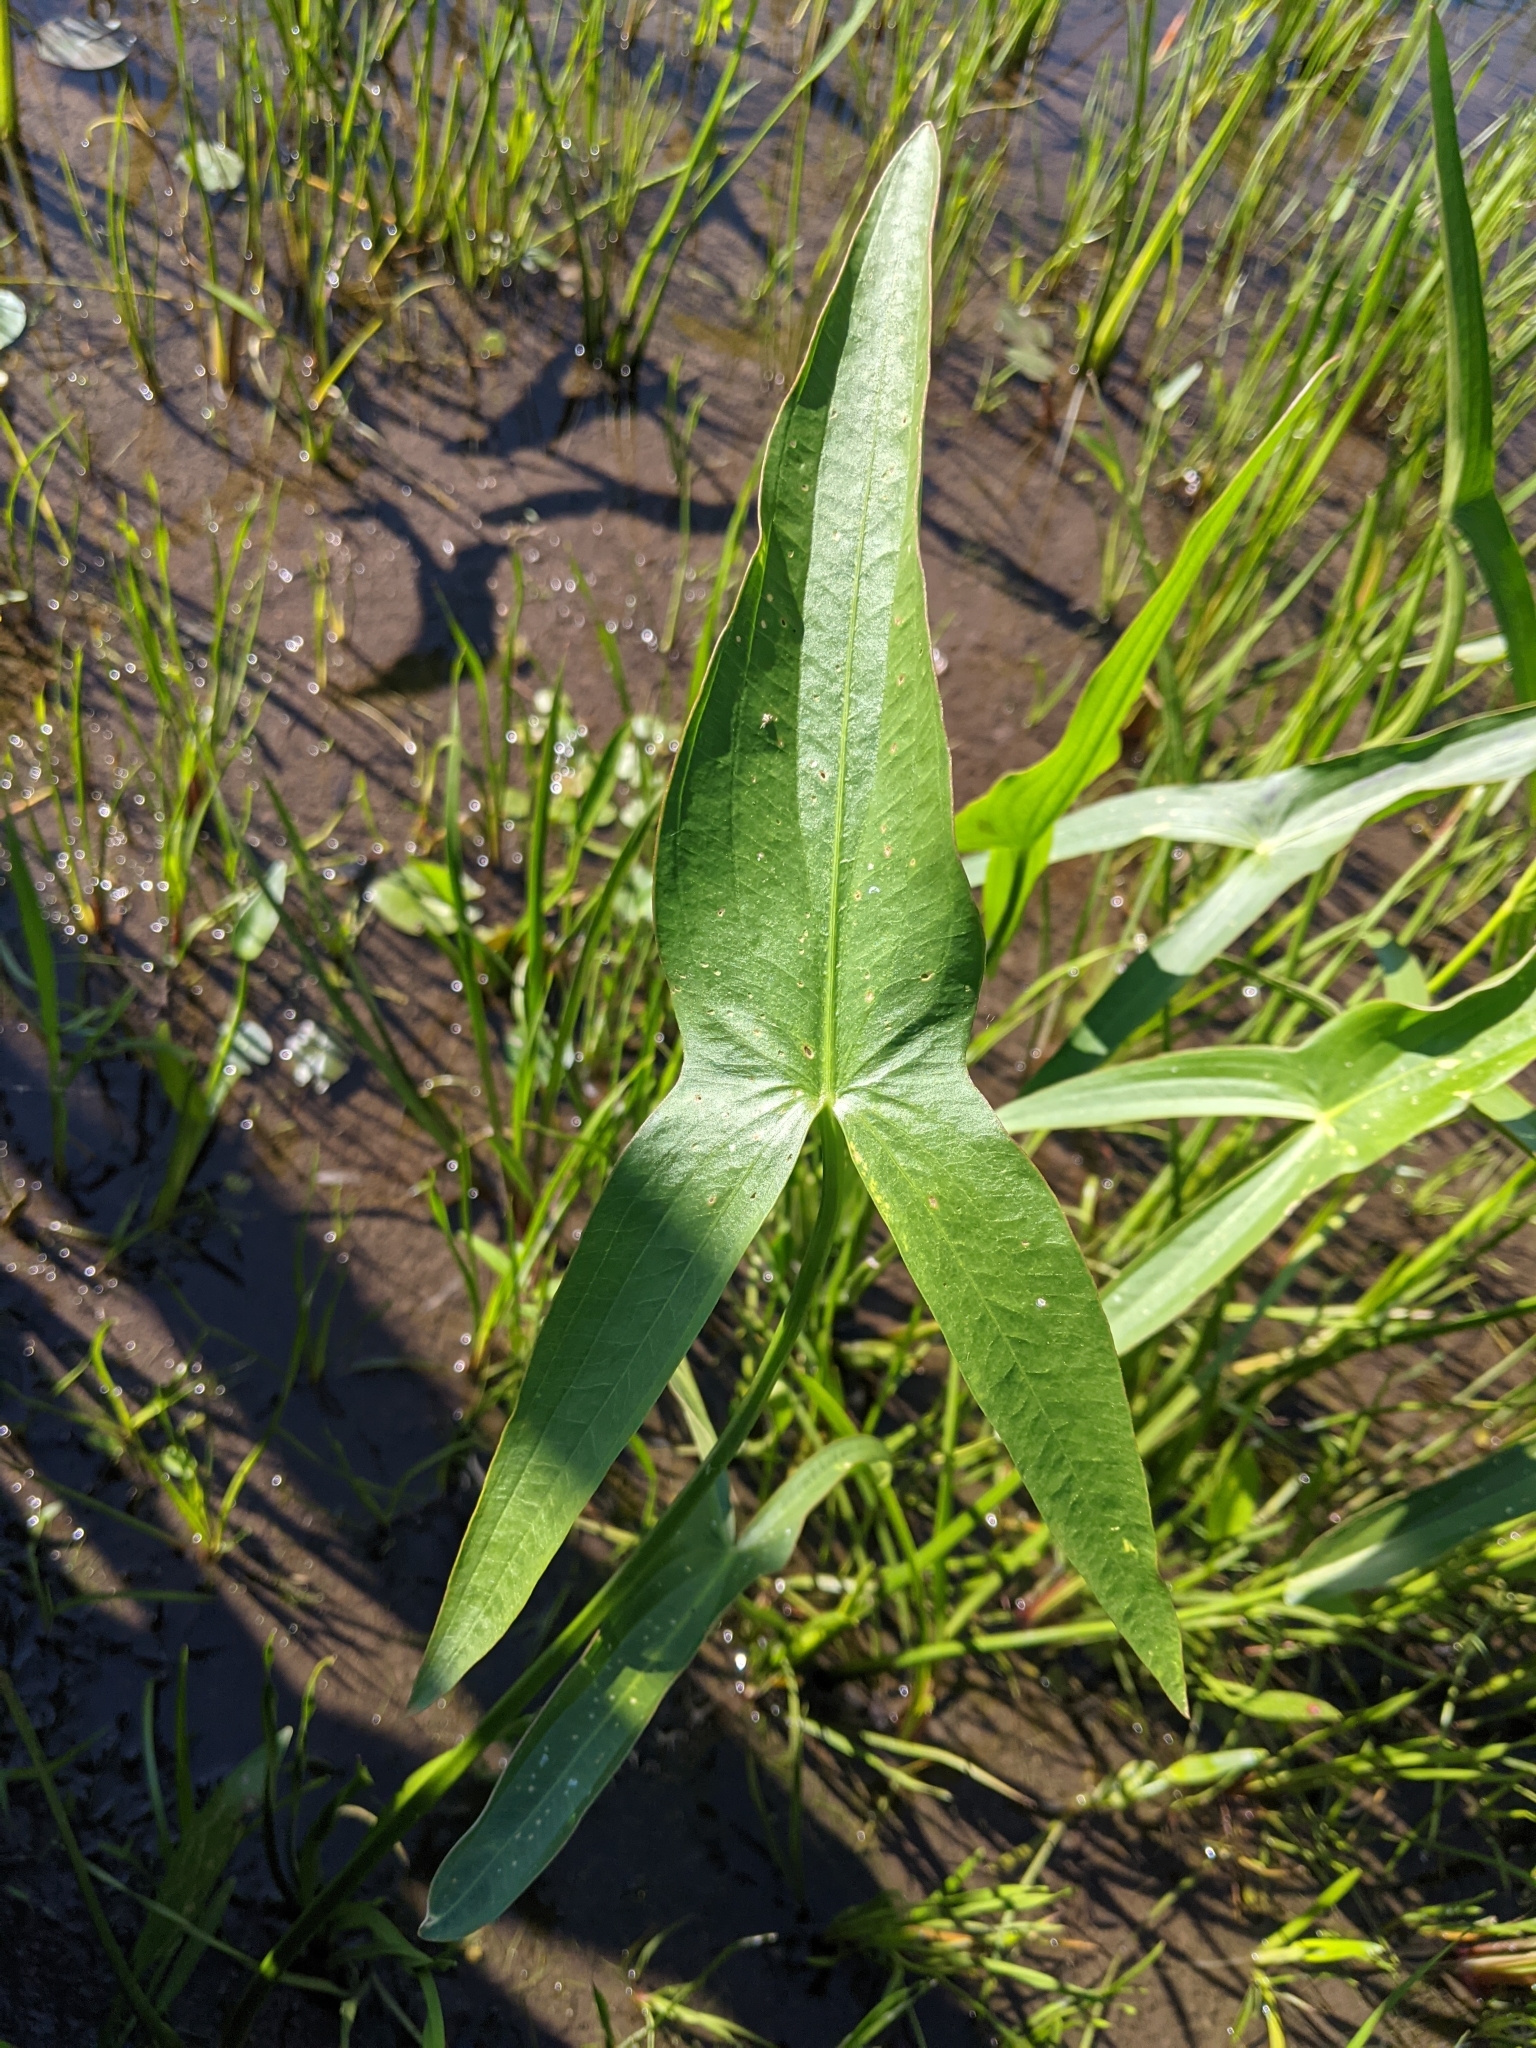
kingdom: Plantae
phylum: Tracheophyta
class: Liliopsida
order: Alismatales
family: Alismataceae
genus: Sagittaria
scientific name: Sagittaria latifolia
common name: Duck-potato
